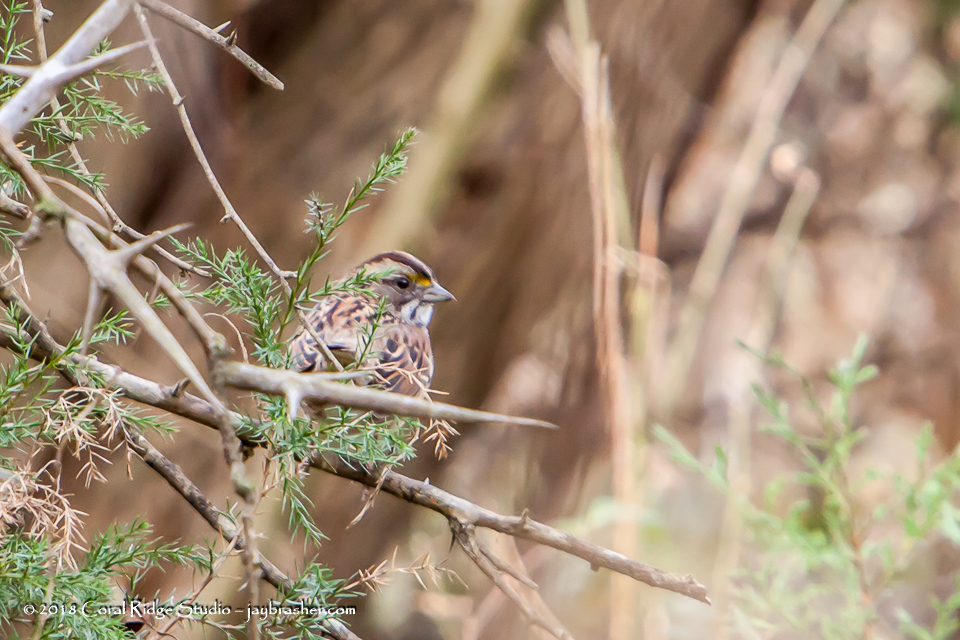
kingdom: Animalia
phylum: Chordata
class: Aves
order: Passeriformes
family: Passerellidae
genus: Zonotrichia
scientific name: Zonotrichia albicollis
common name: White-throated sparrow
